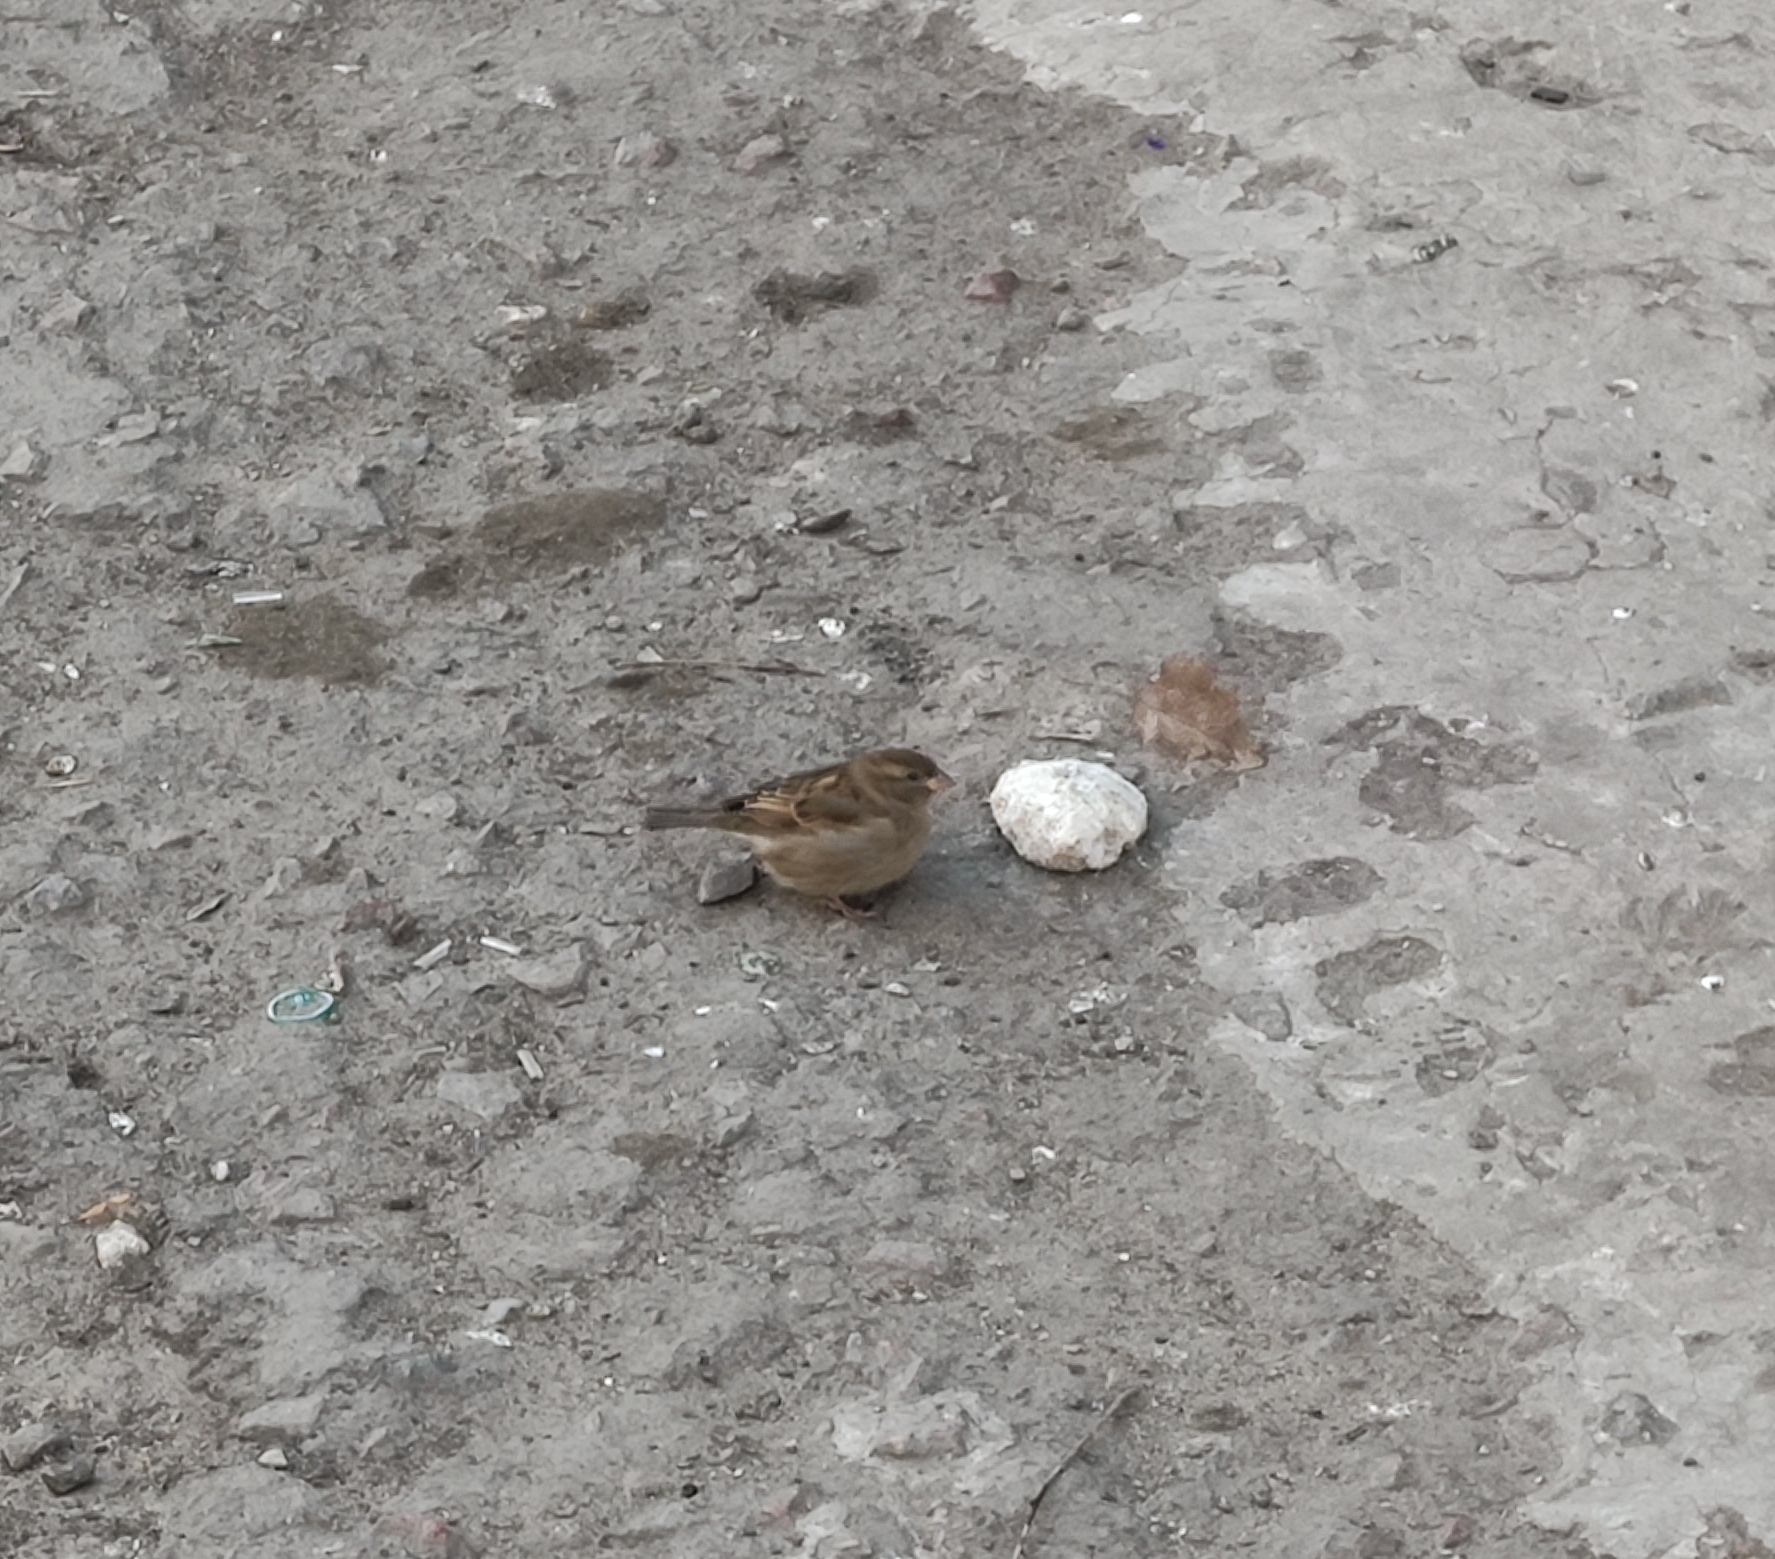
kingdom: Animalia
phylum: Chordata
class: Aves
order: Passeriformes
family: Passeridae
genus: Passer
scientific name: Passer domesticus
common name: House sparrow
